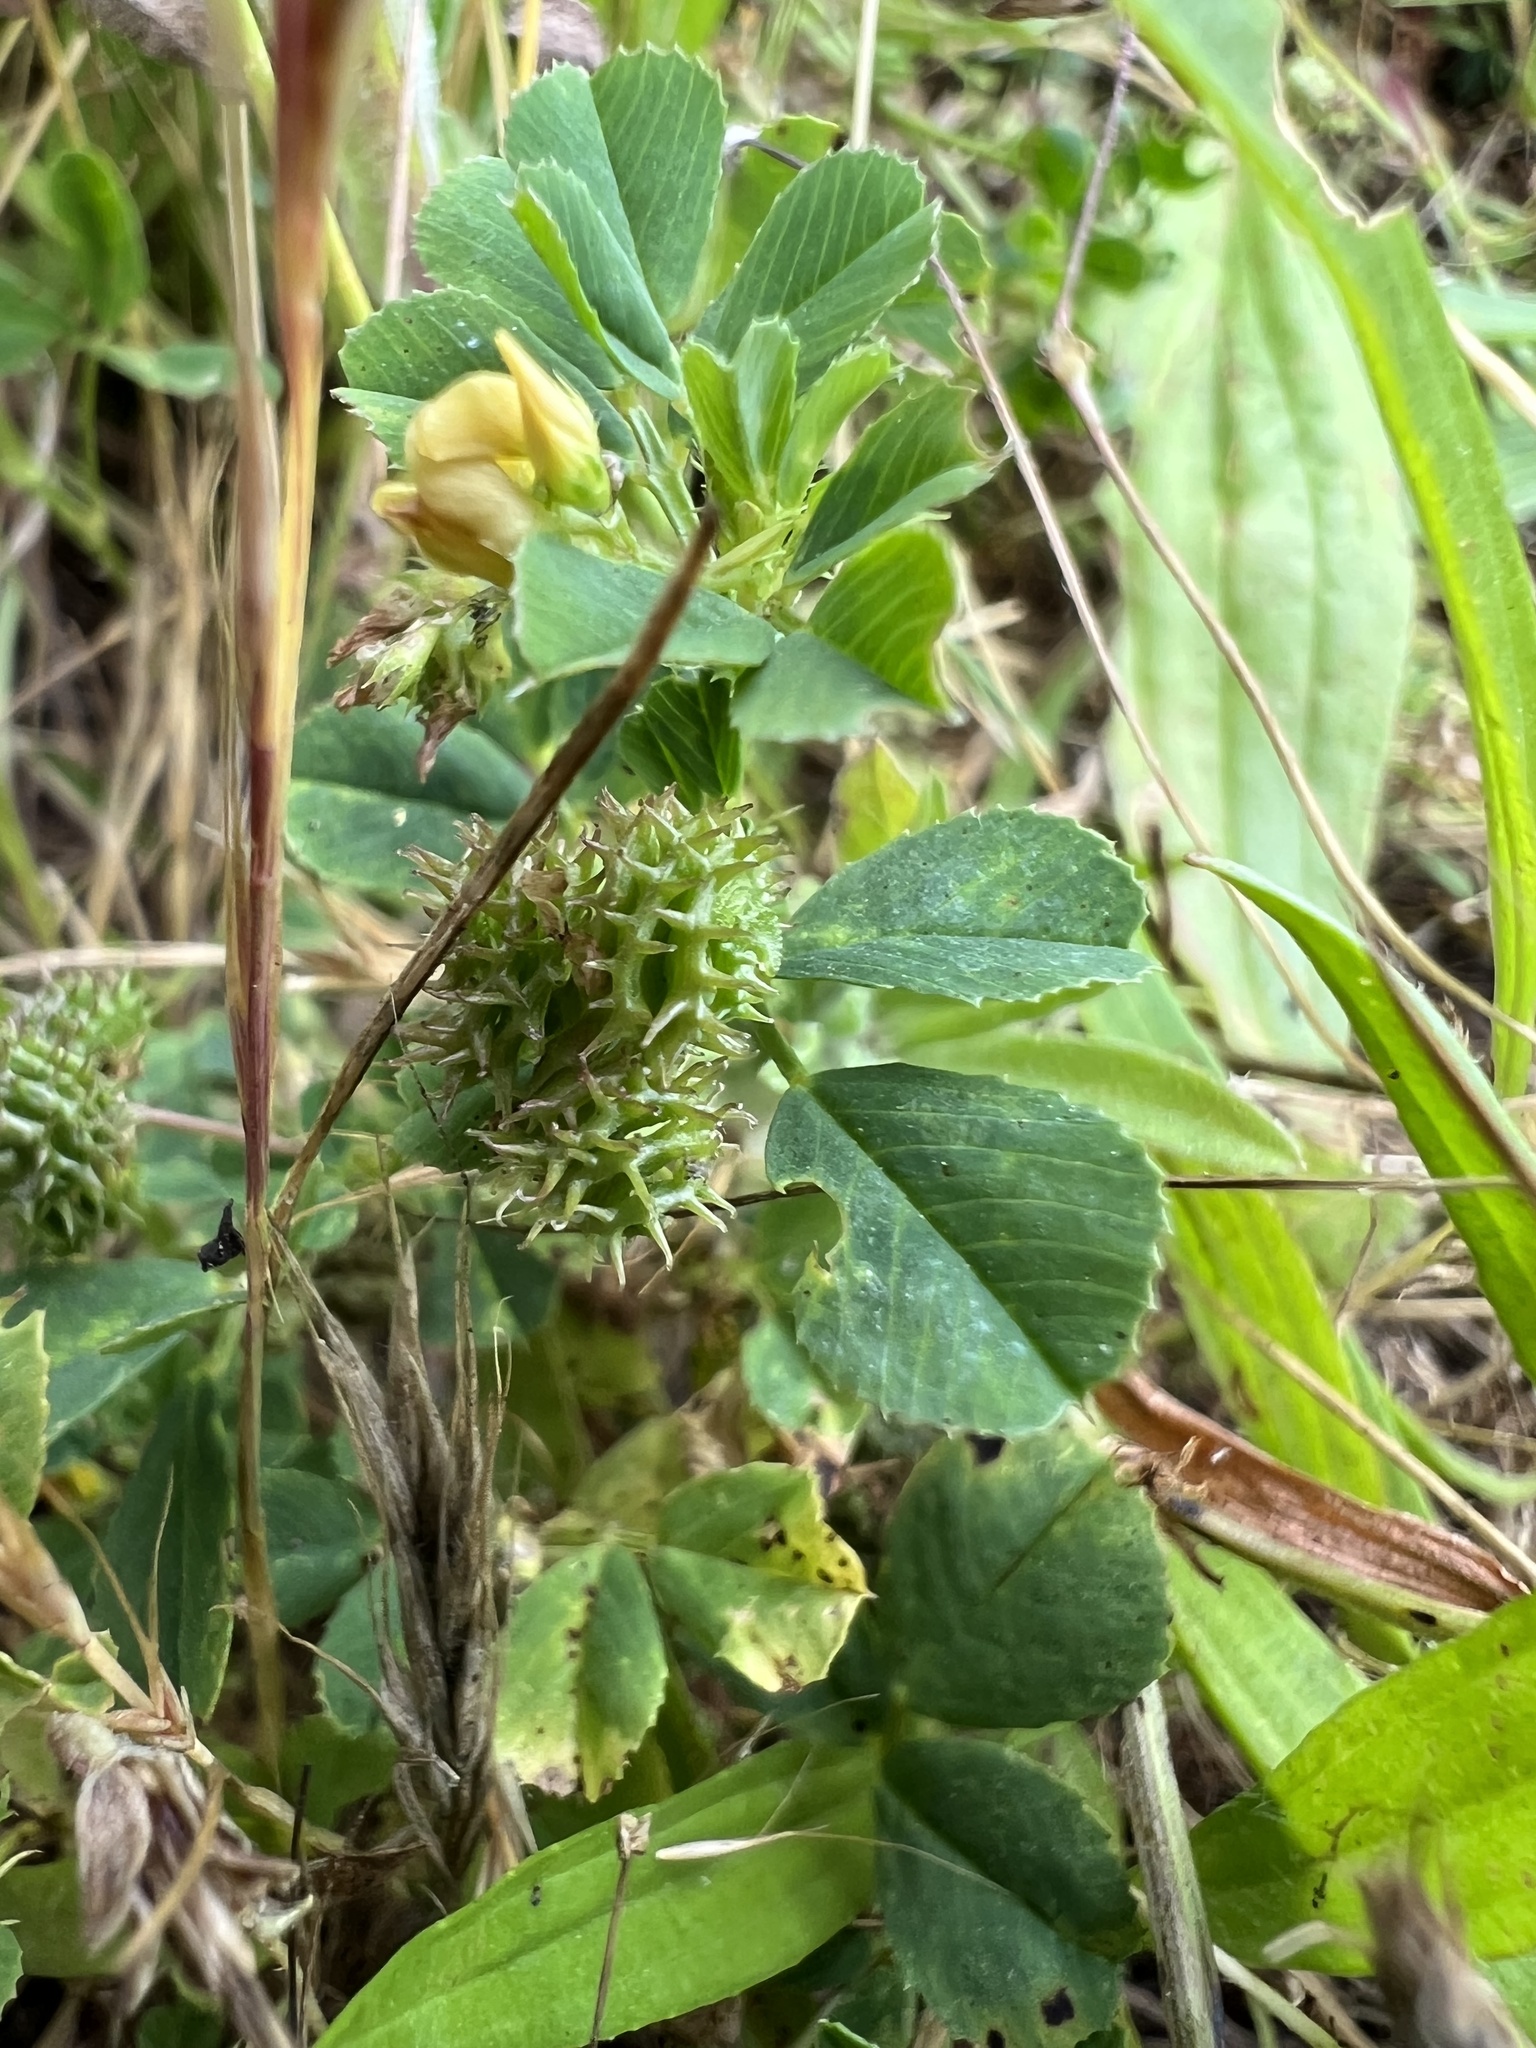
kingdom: Plantae
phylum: Tracheophyta
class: Magnoliopsida
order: Fabales
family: Fabaceae
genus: Medicago
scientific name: Medicago polymorpha
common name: Burclover
